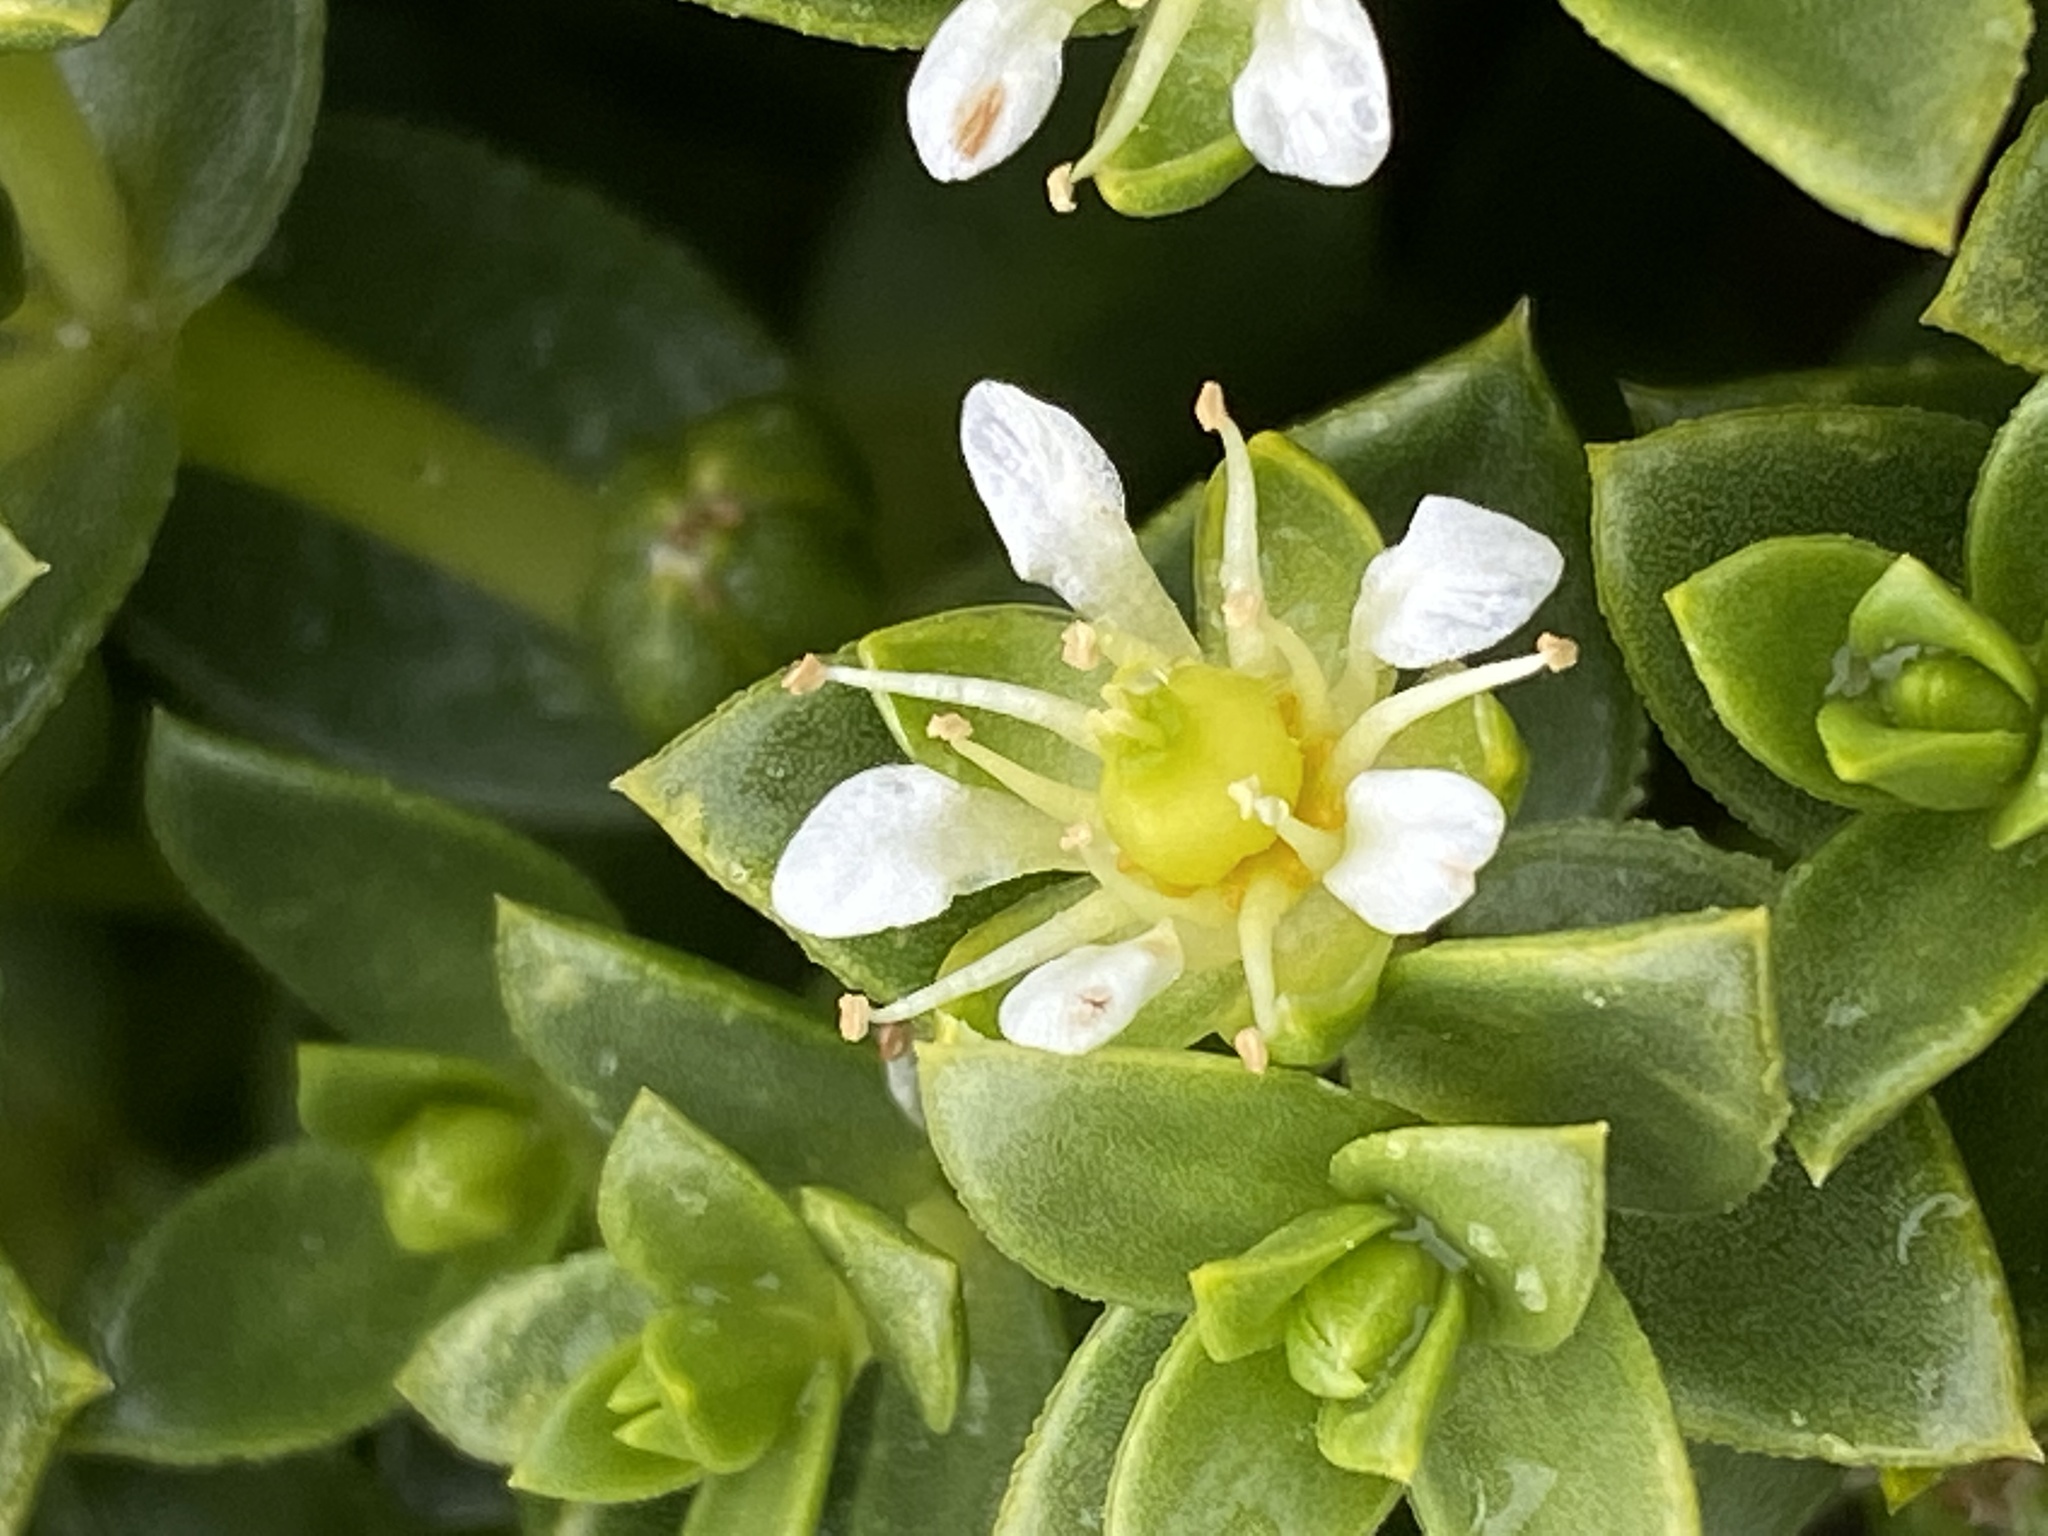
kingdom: Plantae
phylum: Tracheophyta
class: Magnoliopsida
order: Caryophyllales
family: Caryophyllaceae
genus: Honckenya
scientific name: Honckenya peploides
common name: Sea sandwort
